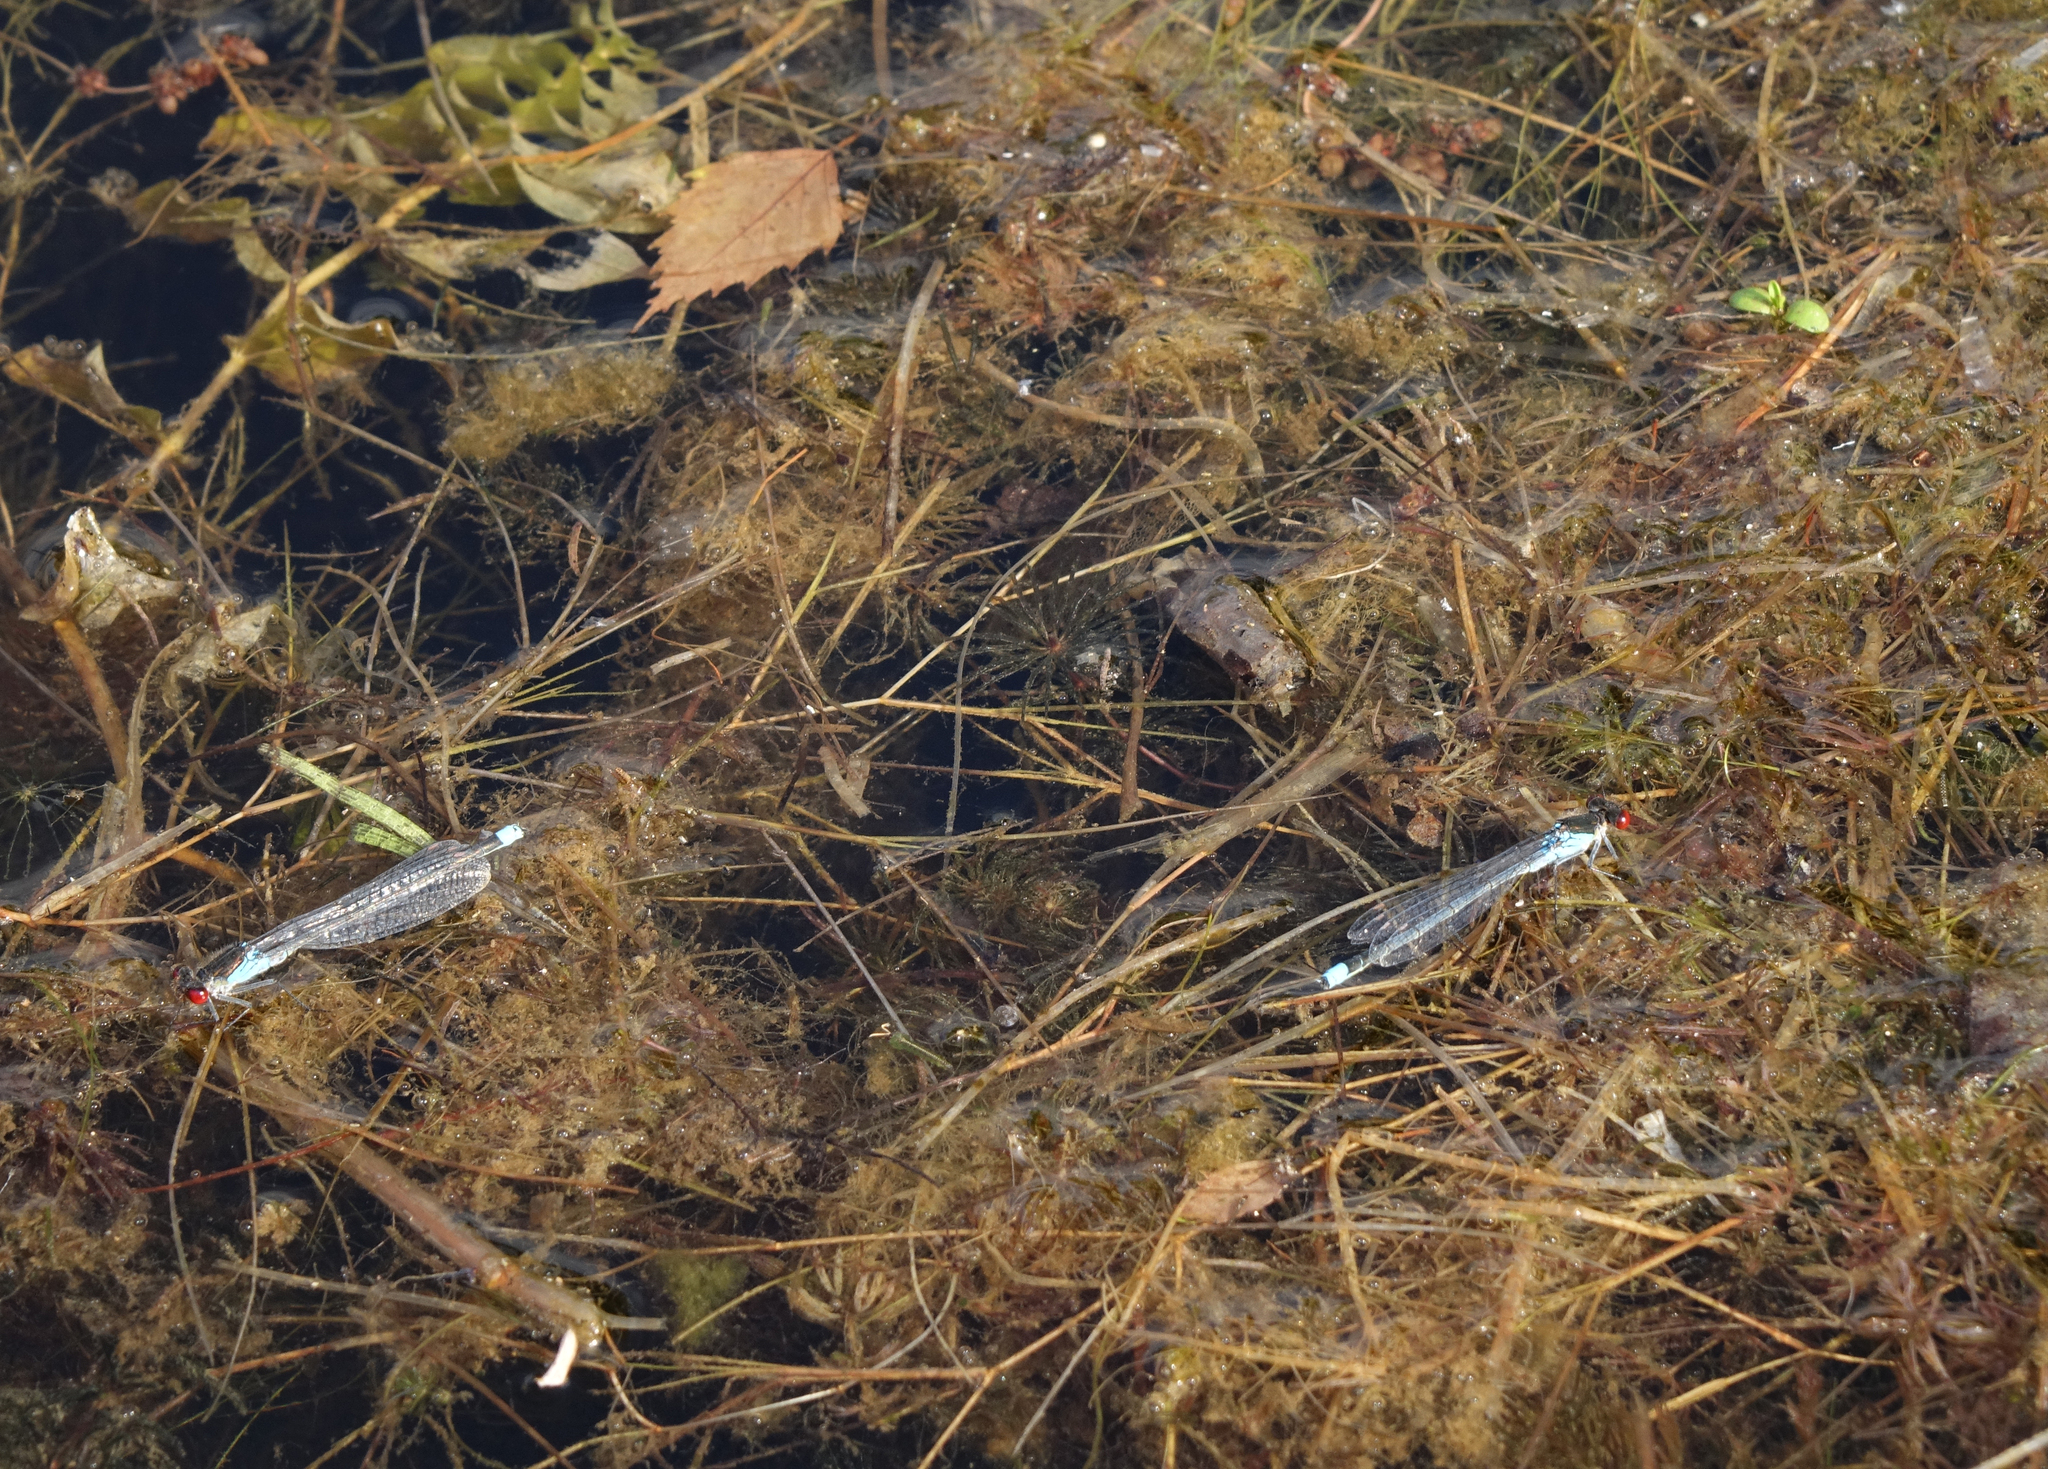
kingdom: Animalia
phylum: Arthropoda
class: Insecta
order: Odonata
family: Coenagrionidae
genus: Erythromma
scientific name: Erythromma najas
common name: Red-eyed damselfly
